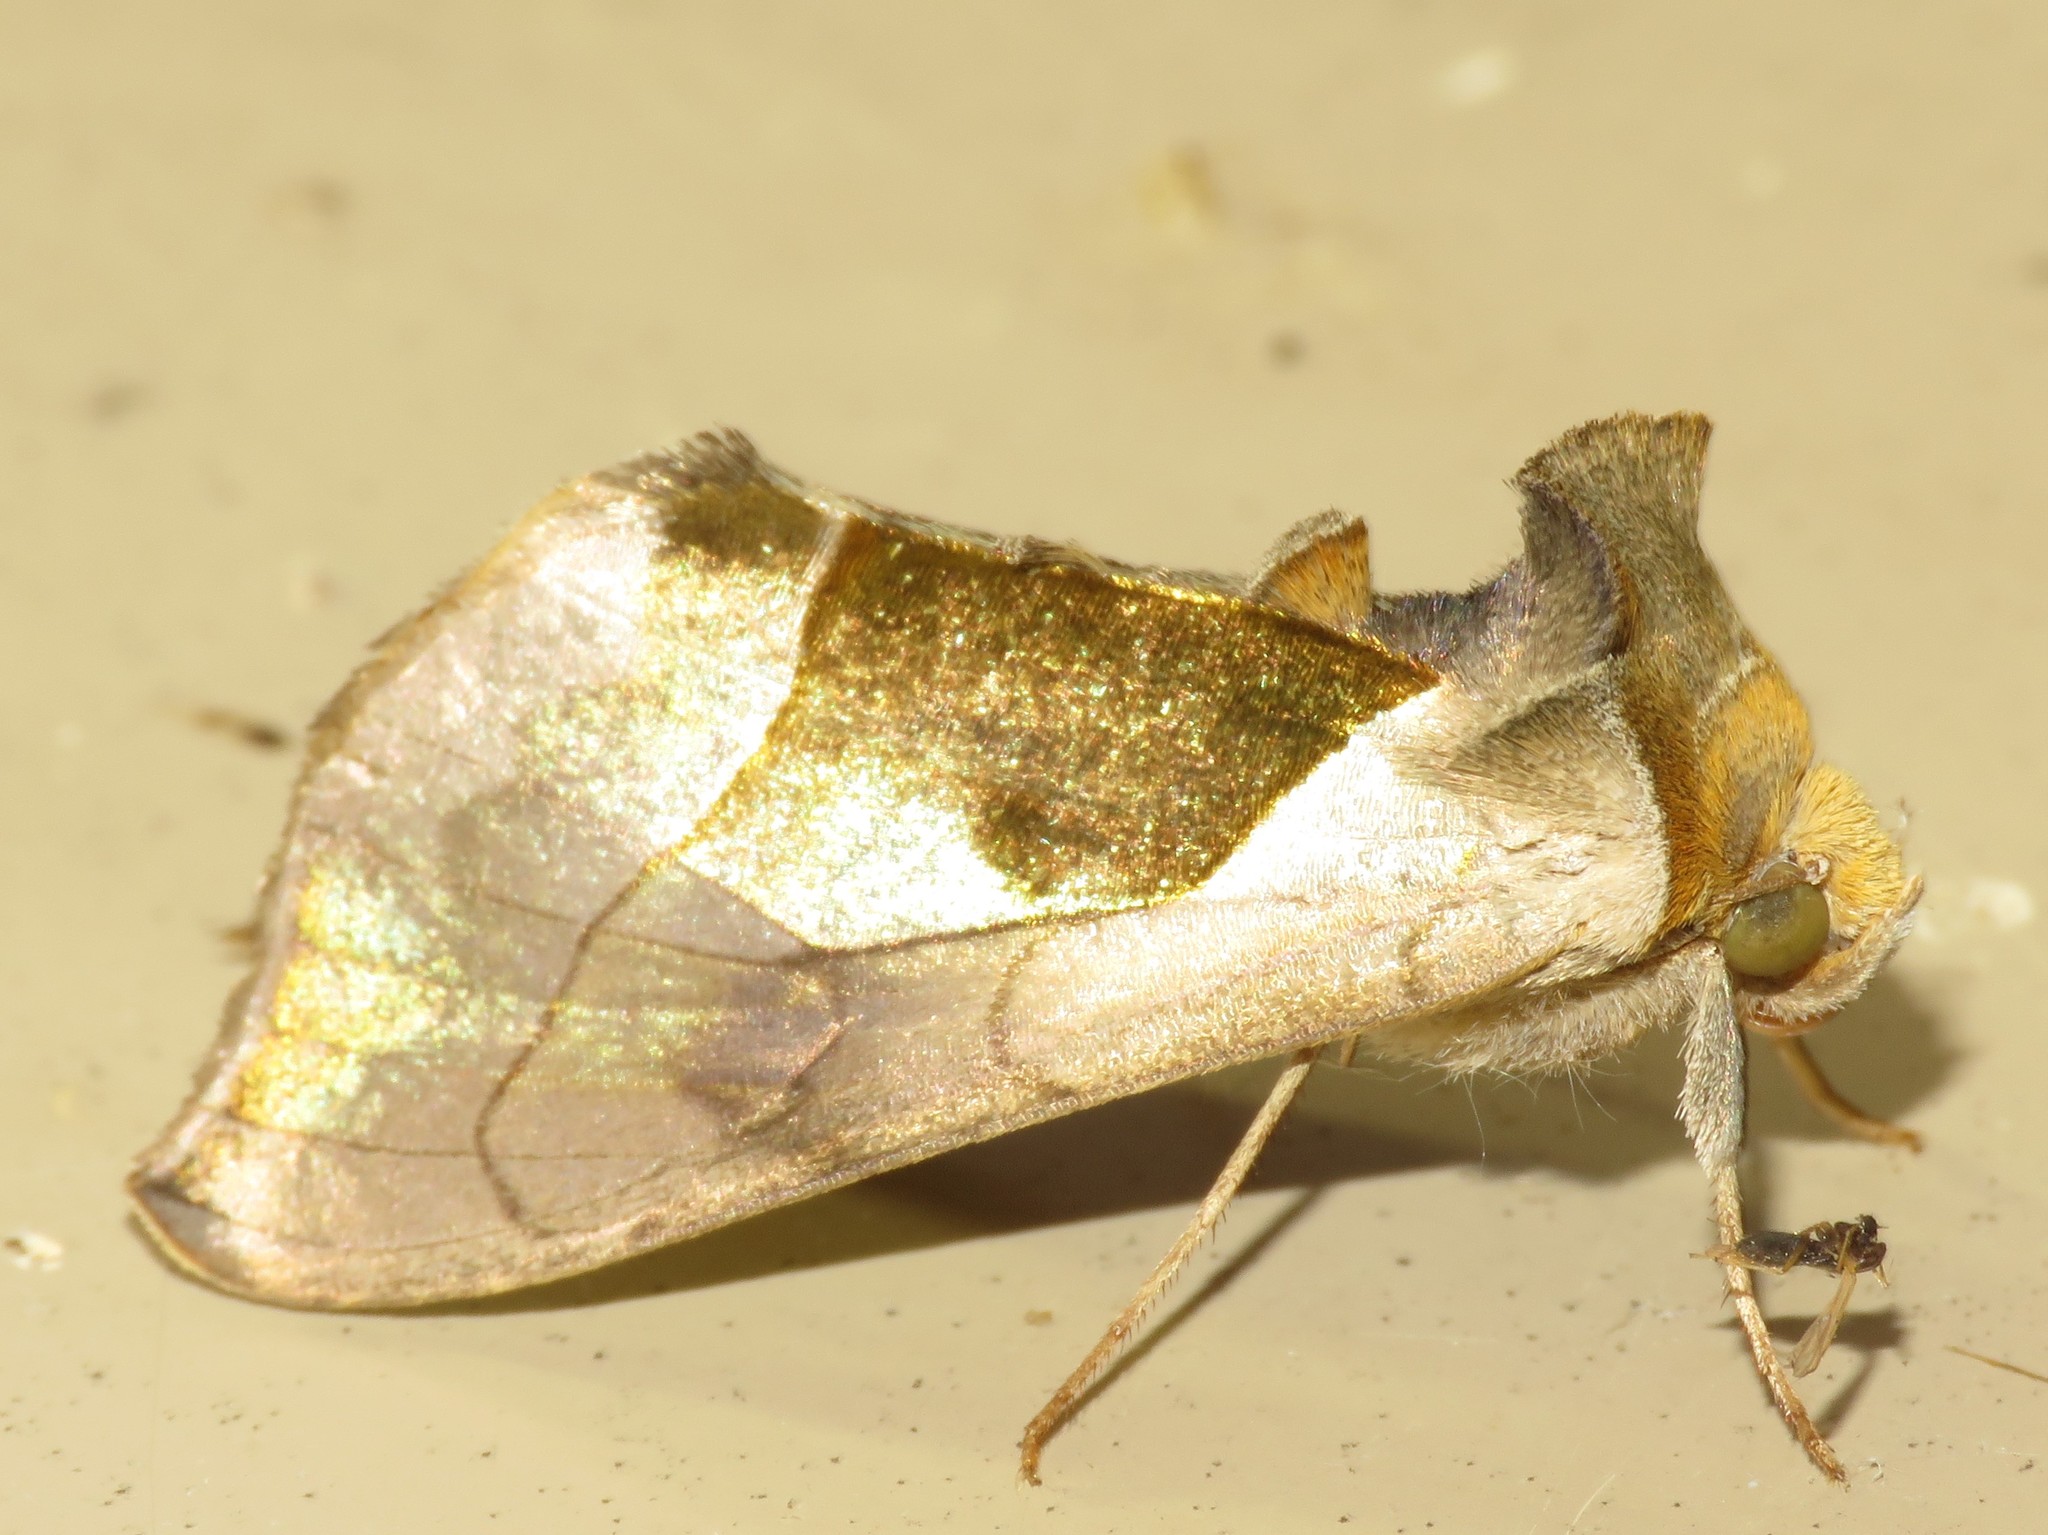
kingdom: Animalia
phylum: Arthropoda
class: Insecta
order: Lepidoptera
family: Noctuidae
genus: Diachrysia
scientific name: Diachrysia balluca
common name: Green-patched looper moth
